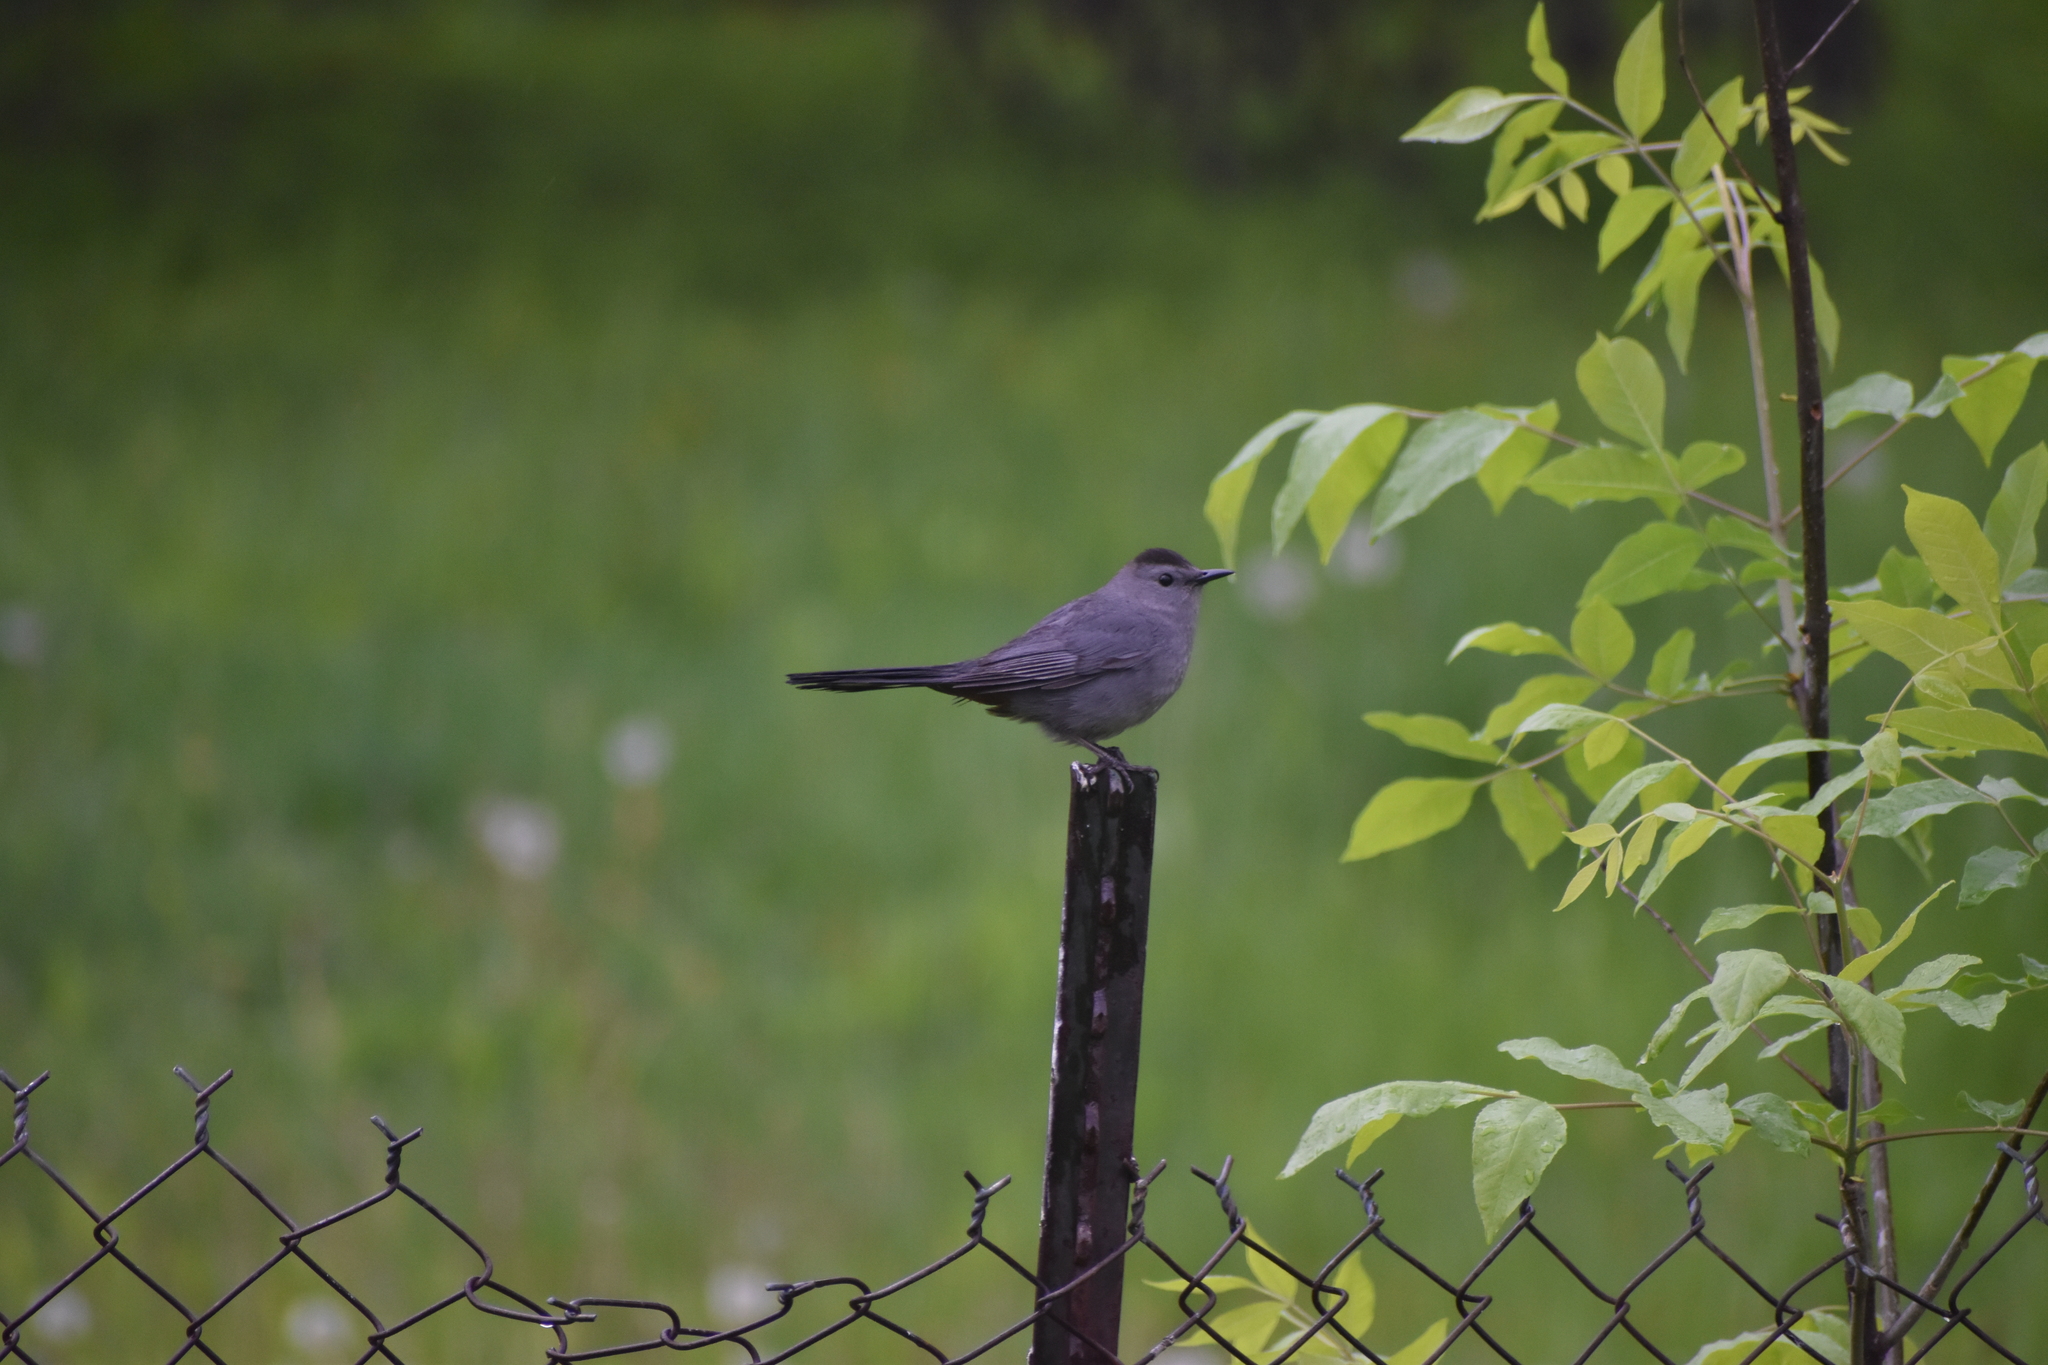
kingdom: Animalia
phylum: Chordata
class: Aves
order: Passeriformes
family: Mimidae
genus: Dumetella
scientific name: Dumetella carolinensis
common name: Gray catbird
